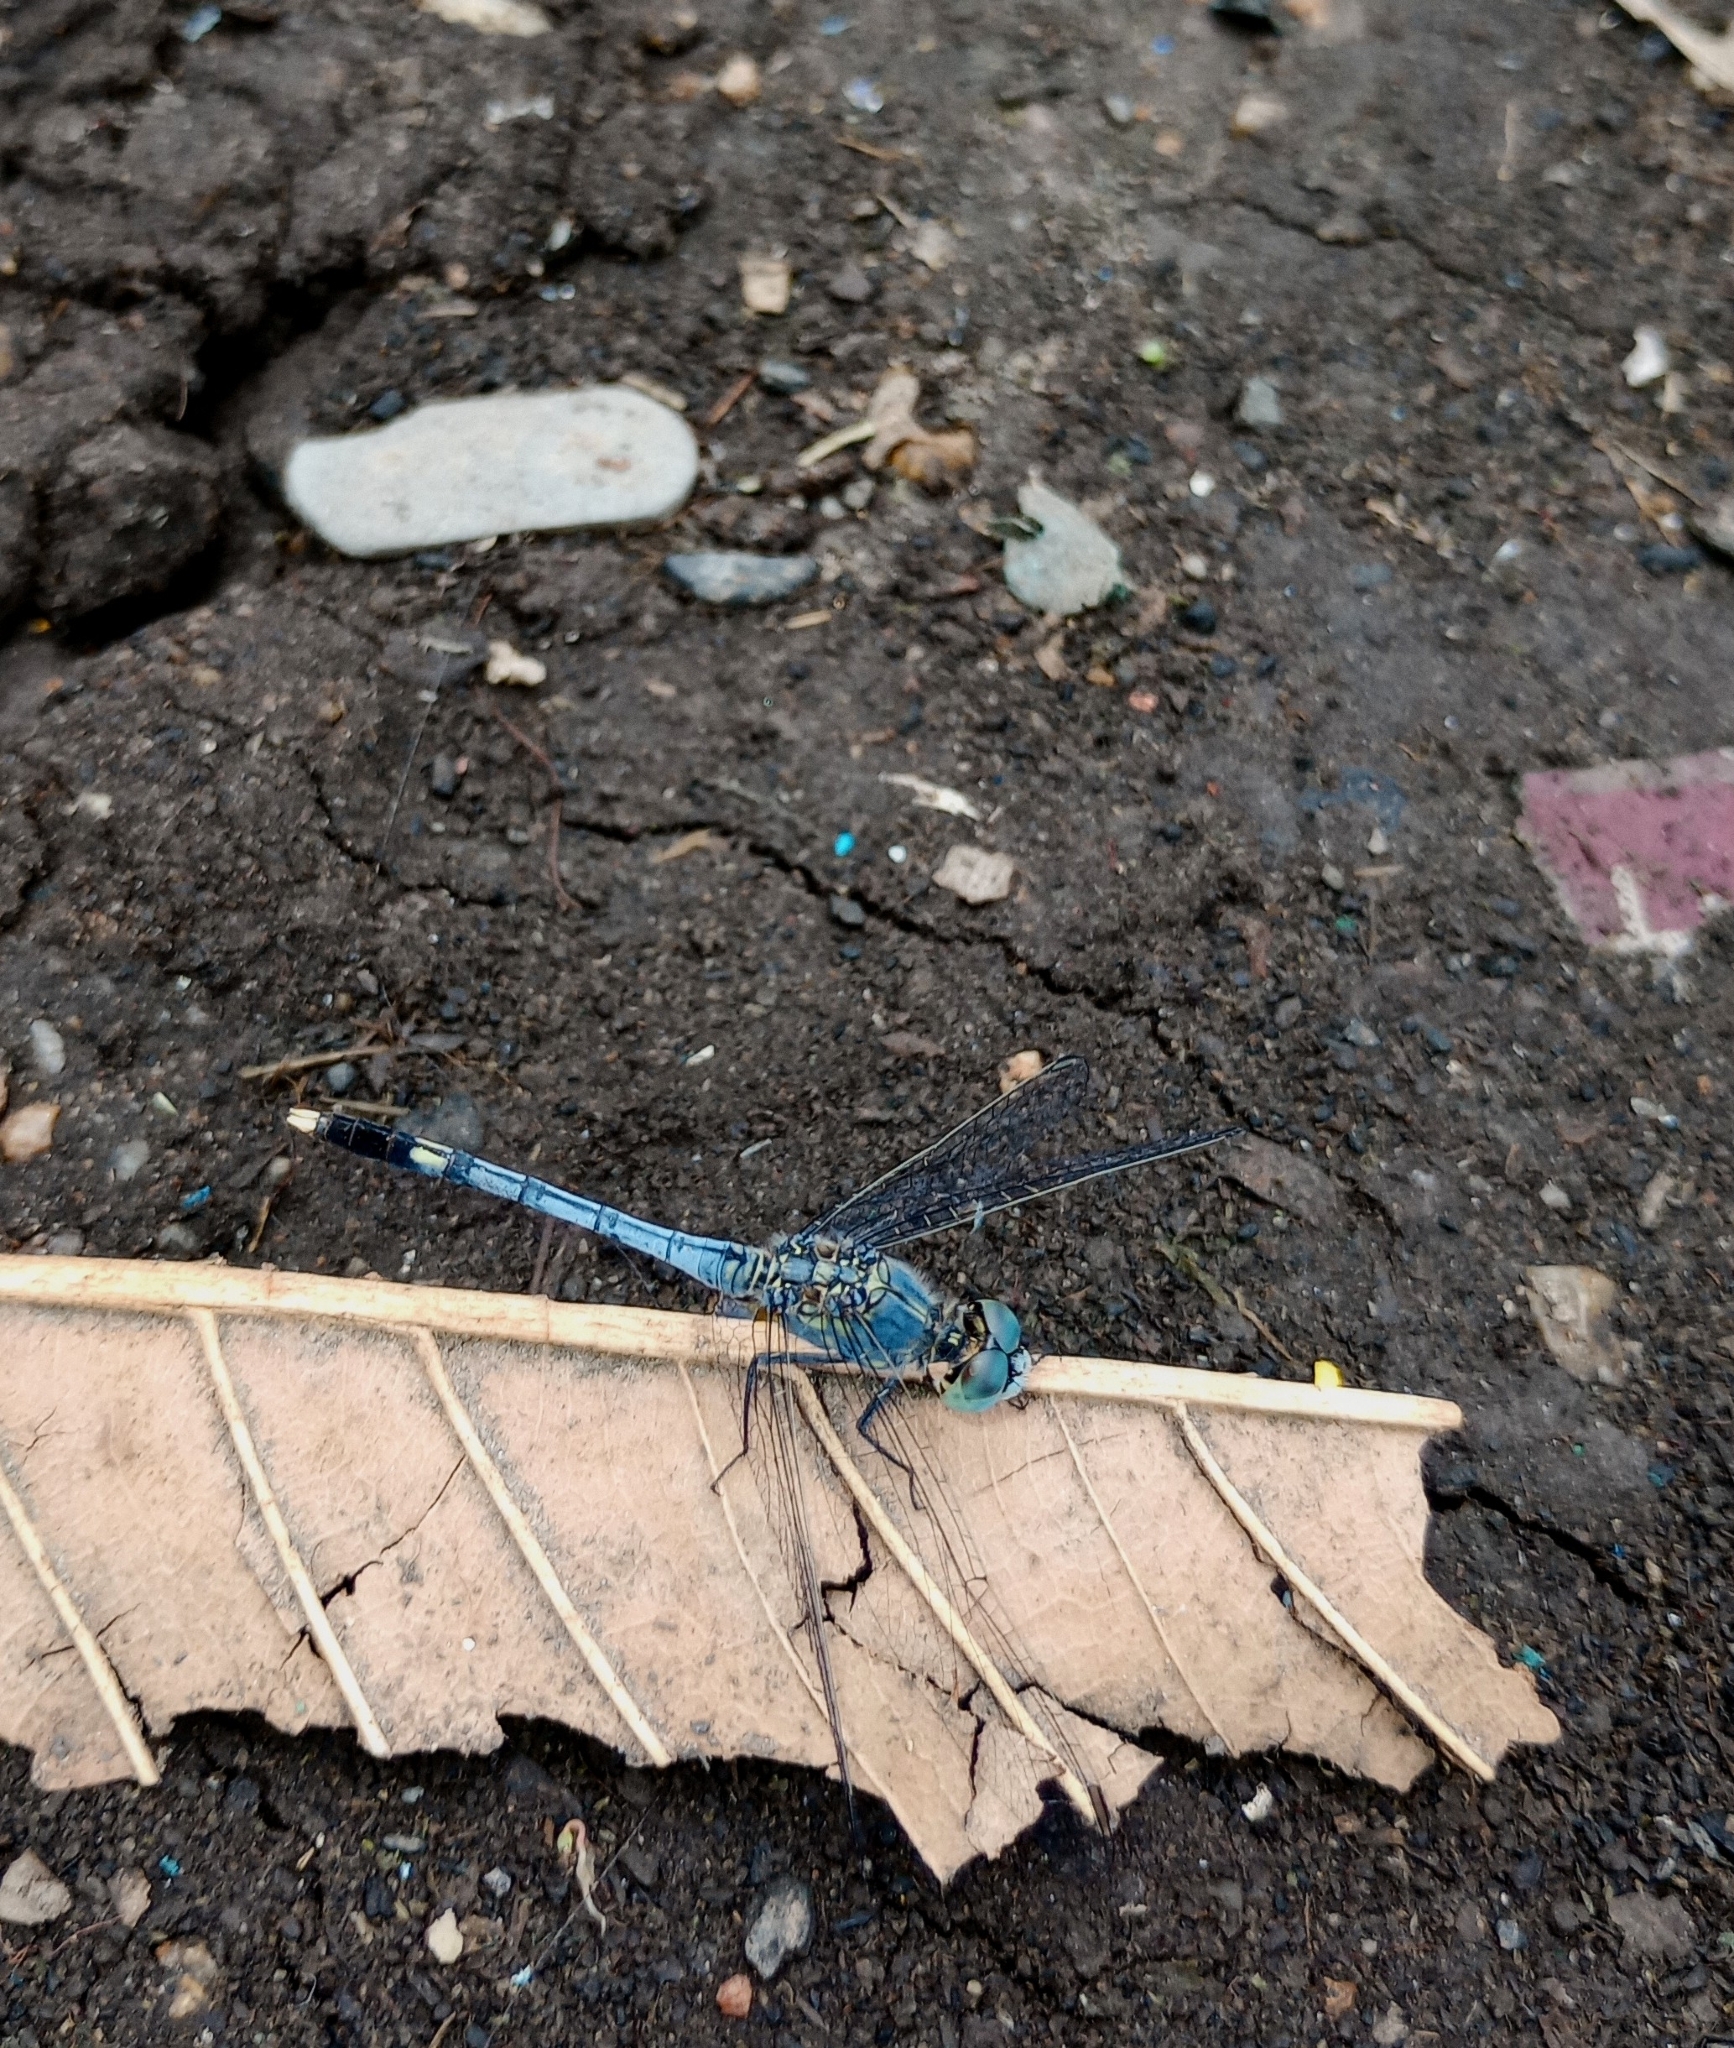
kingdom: Animalia
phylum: Arthropoda
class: Insecta
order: Odonata
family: Libellulidae
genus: Diplacodes
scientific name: Diplacodes trivialis
